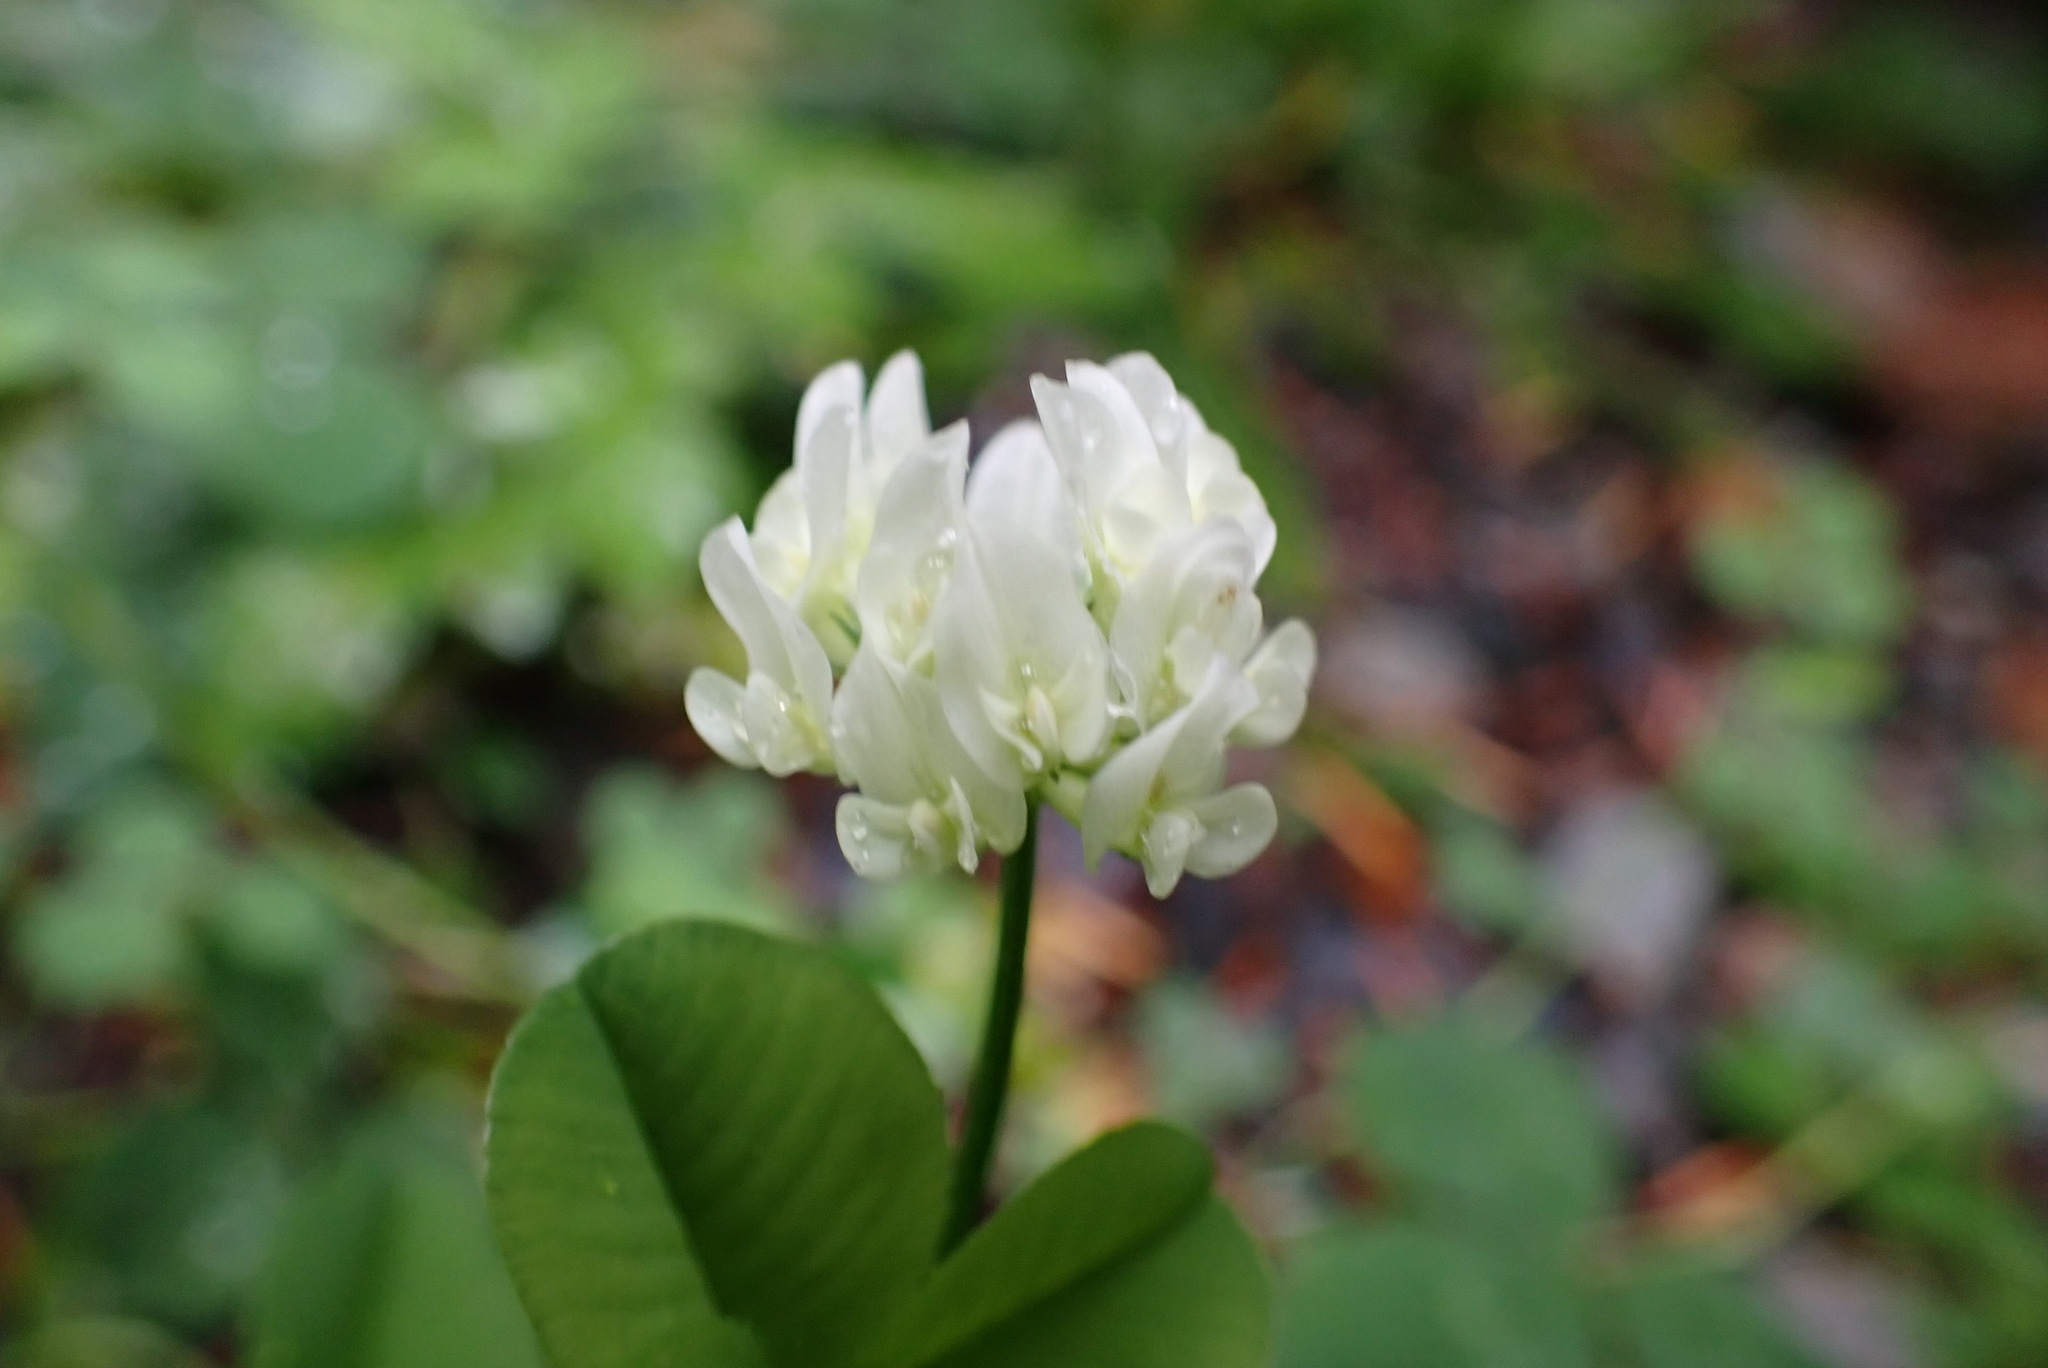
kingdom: Plantae
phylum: Tracheophyta
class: Magnoliopsida
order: Fabales
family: Fabaceae
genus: Trifolium
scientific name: Trifolium repens
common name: White clover
